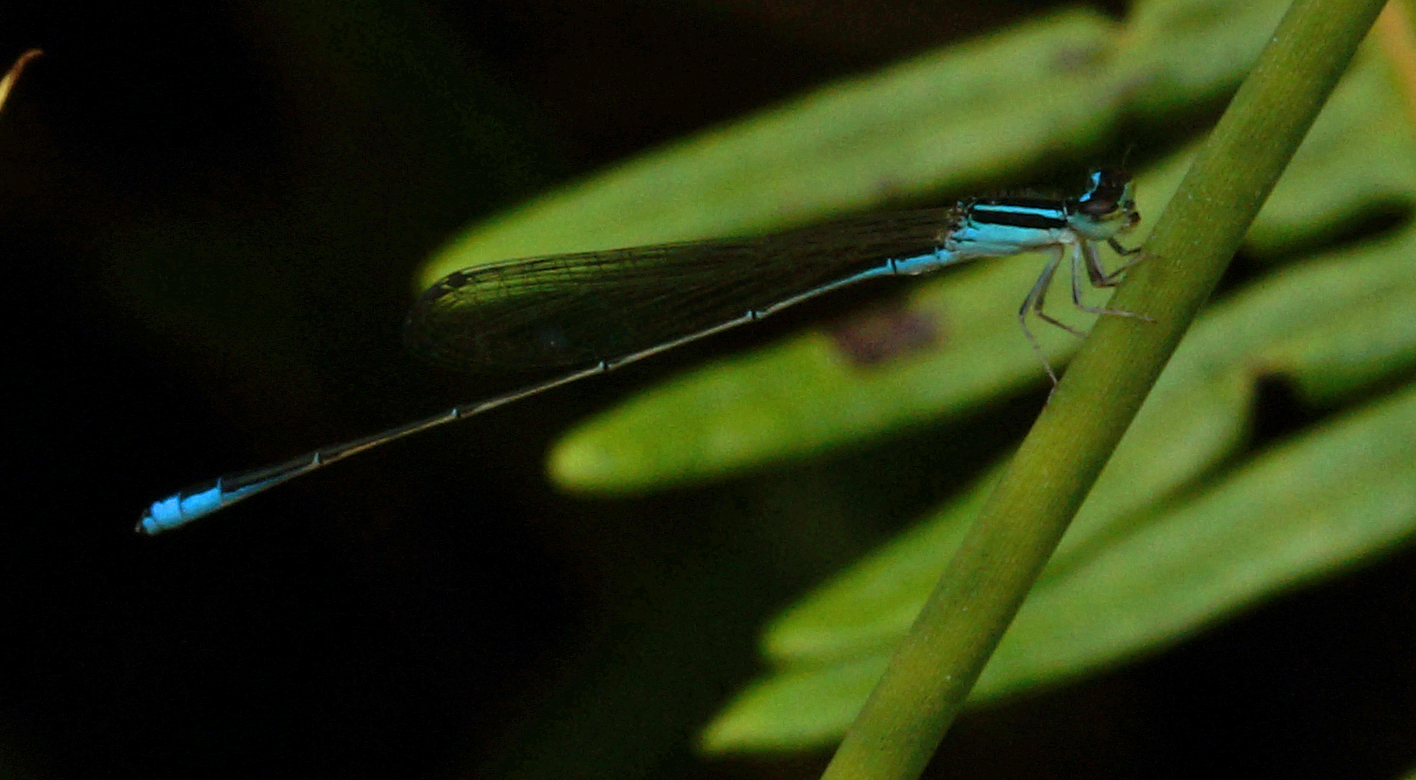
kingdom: Animalia
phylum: Arthropoda
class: Insecta
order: Odonata
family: Coenagrionidae
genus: Aciagrion
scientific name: Aciagrion borneense
